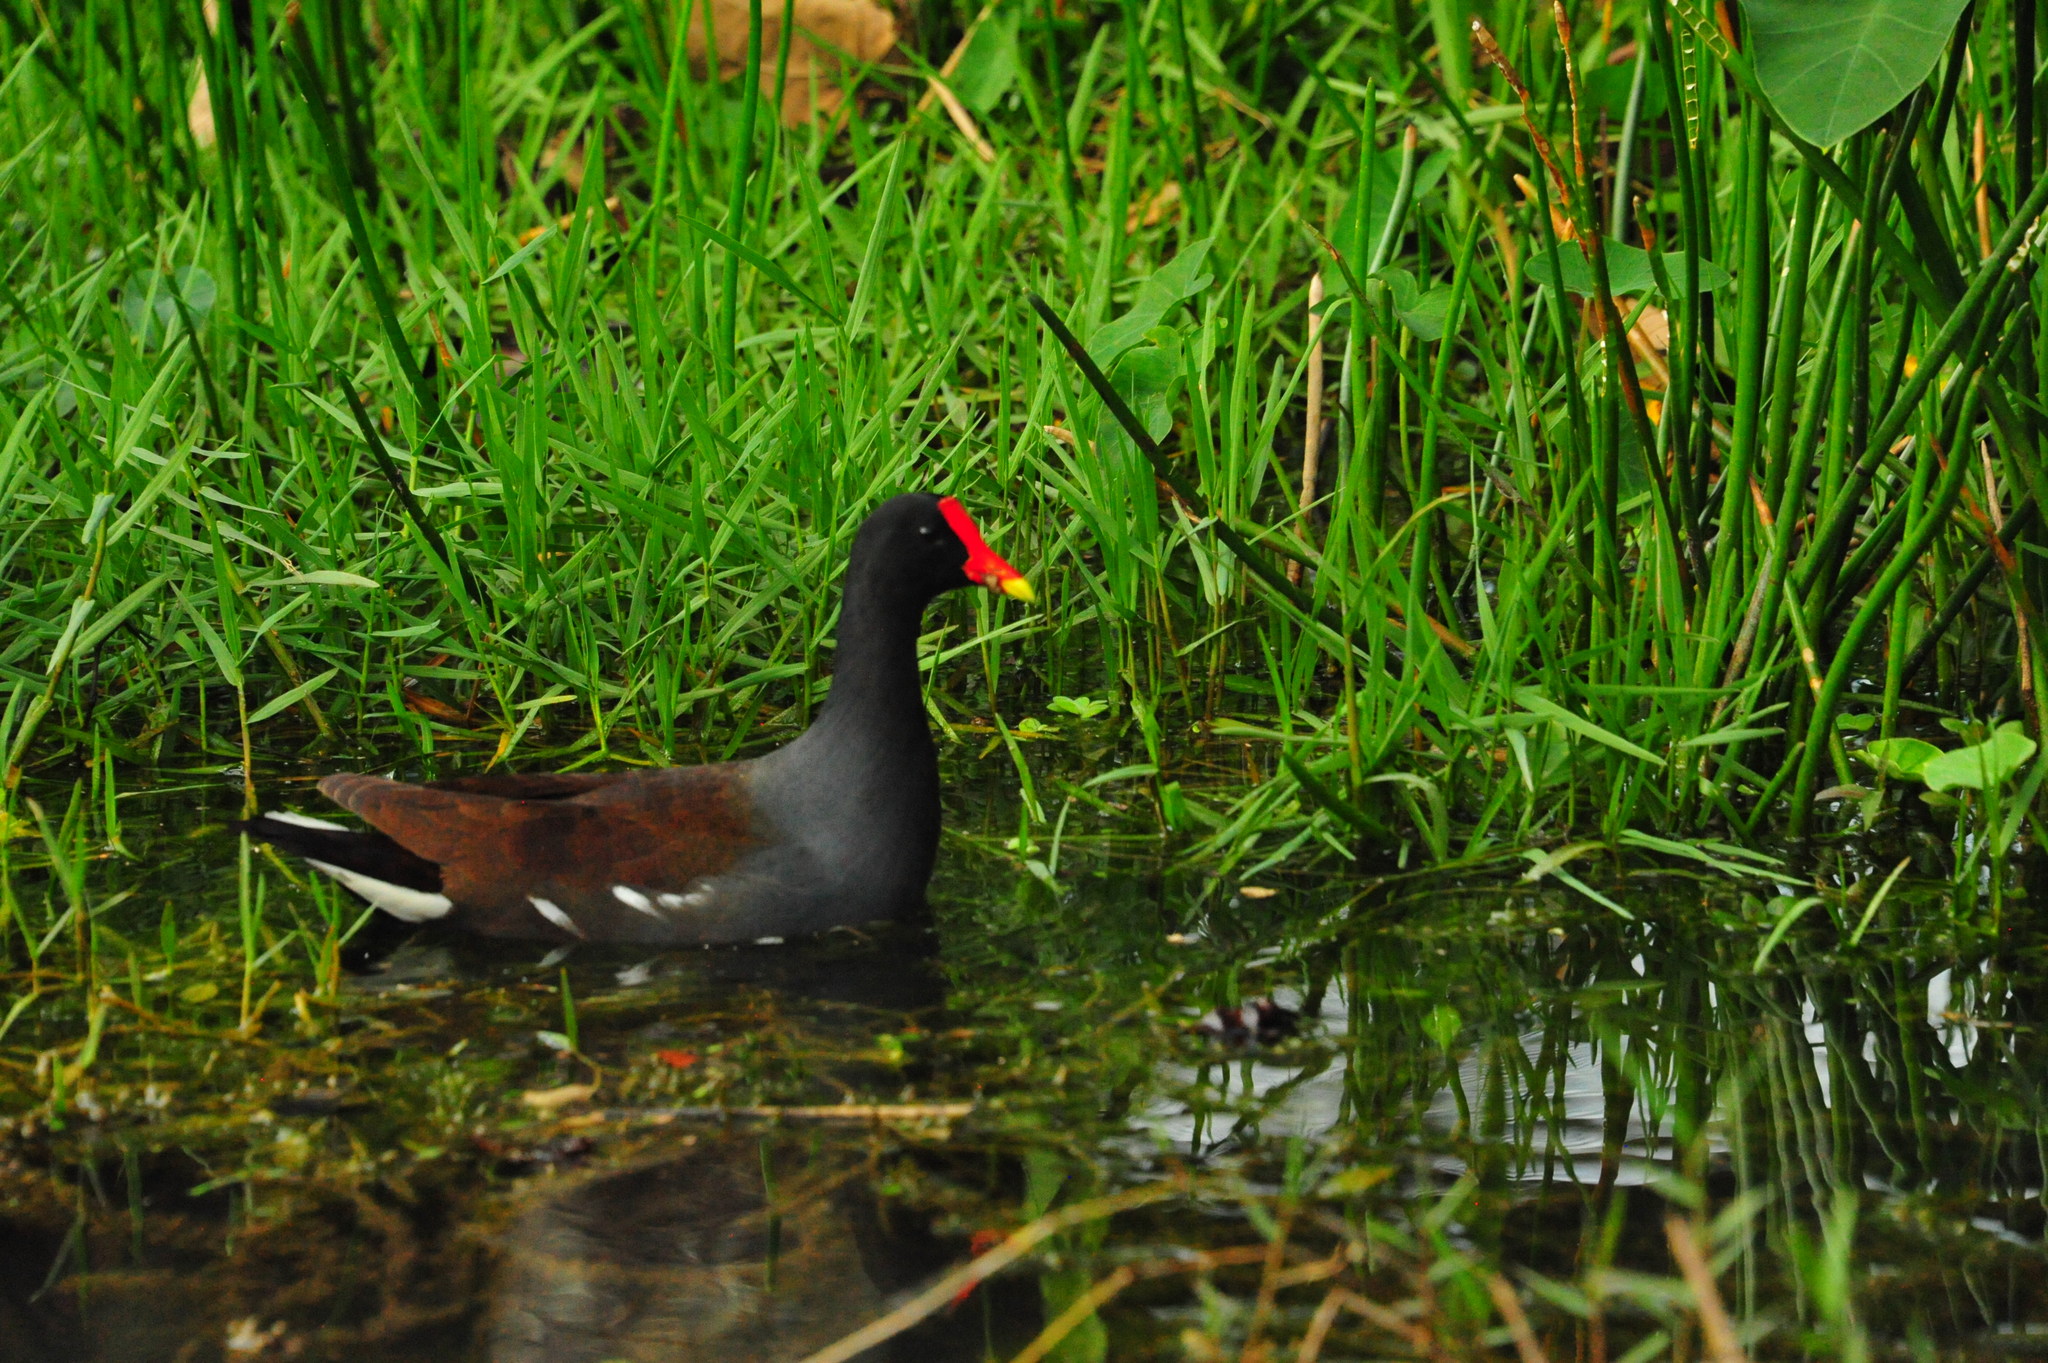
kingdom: Animalia
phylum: Chordata
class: Aves
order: Gruiformes
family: Rallidae
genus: Gallinula
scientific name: Gallinula chloropus
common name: Common moorhen
